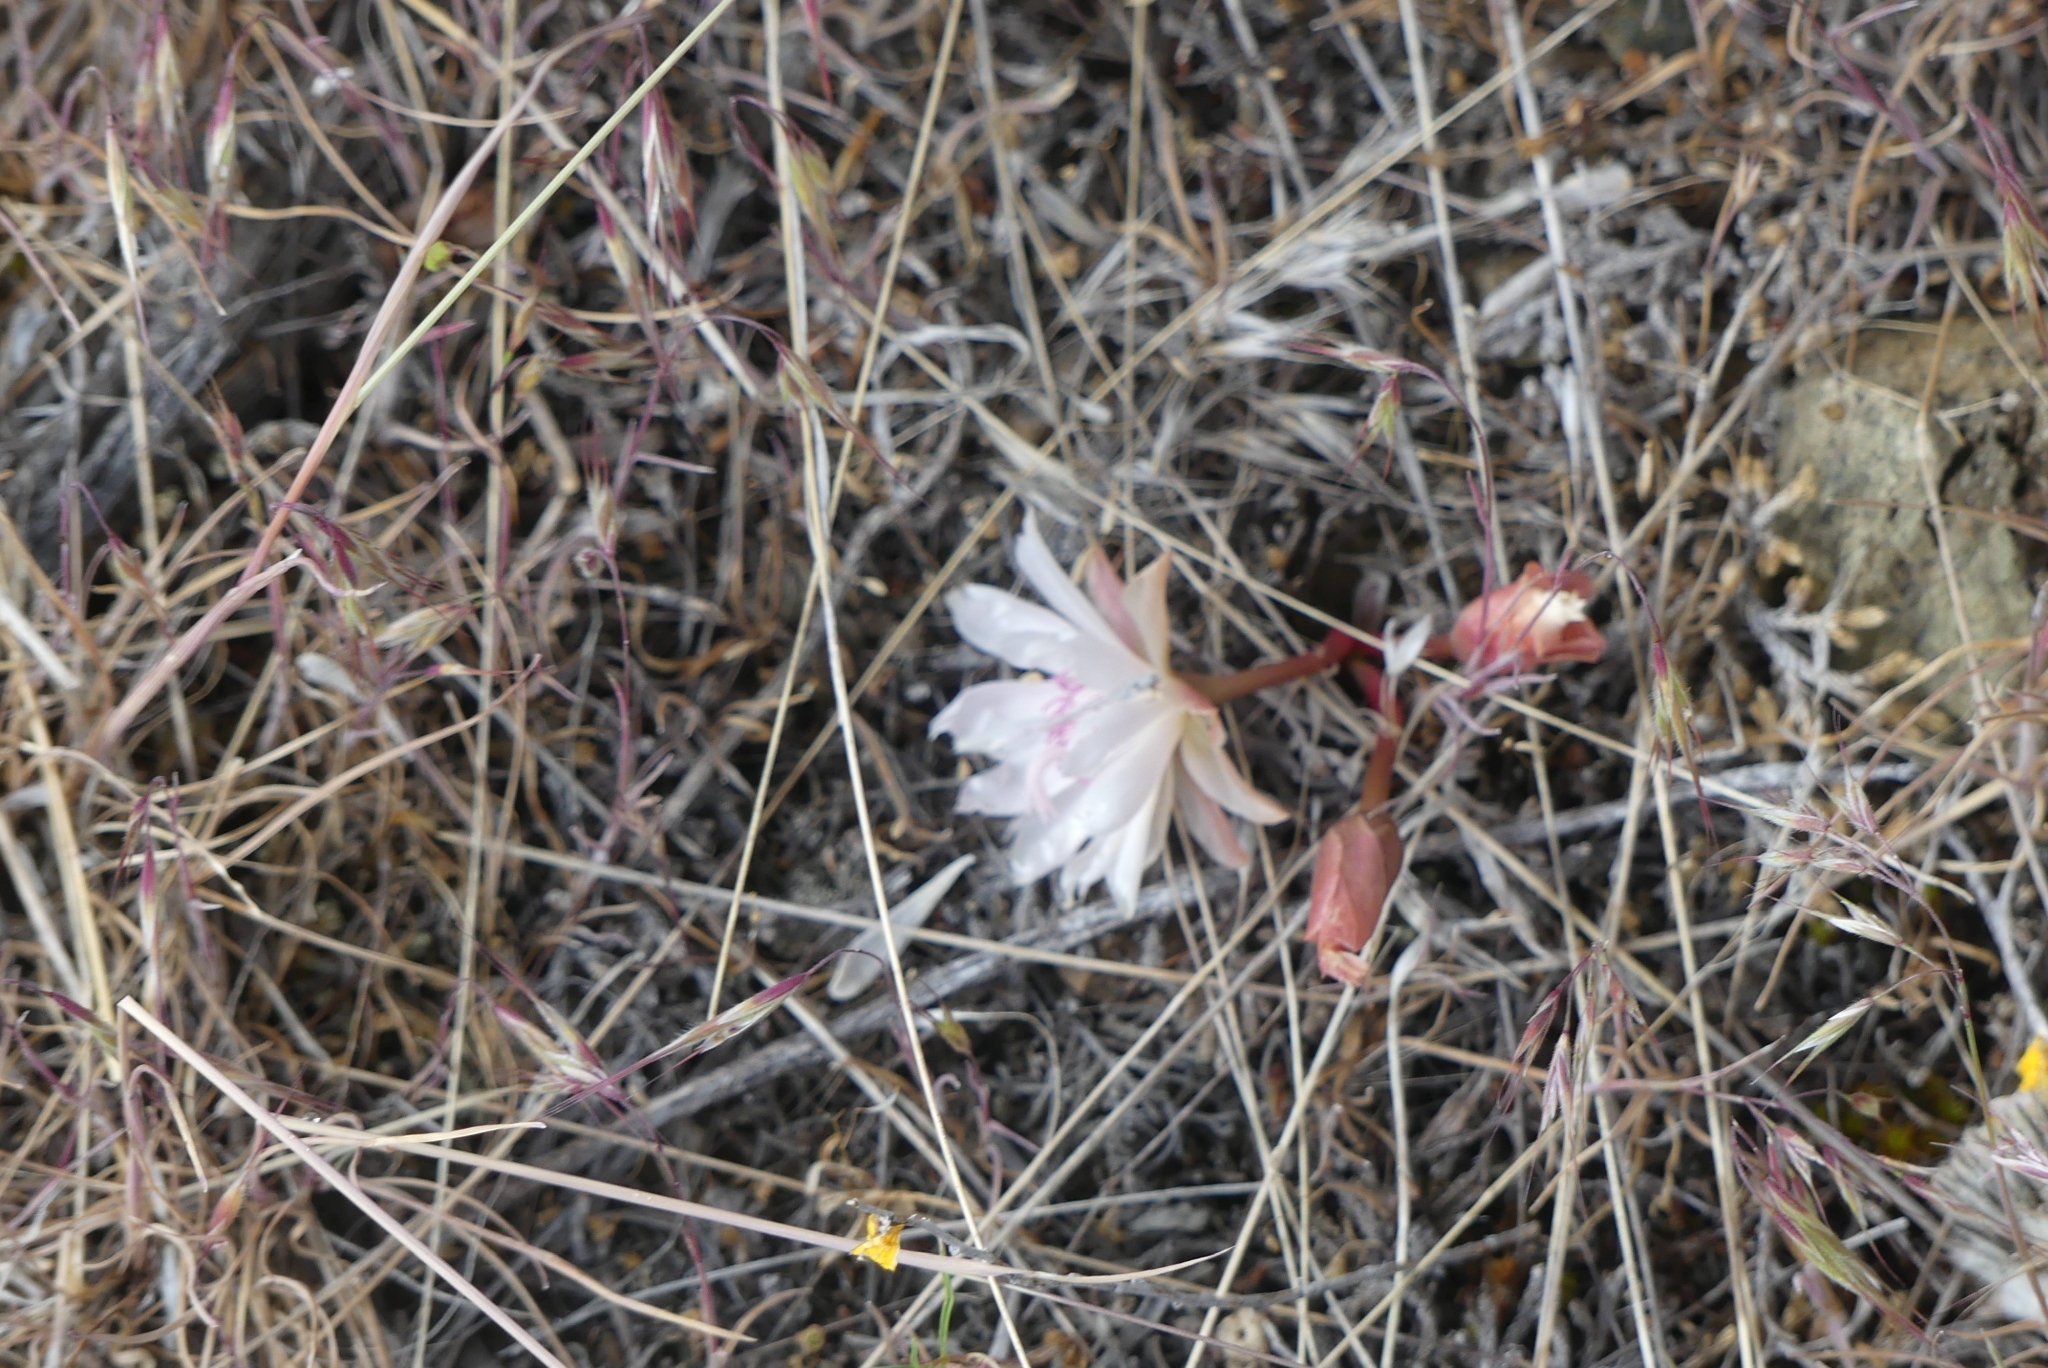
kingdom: Plantae
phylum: Tracheophyta
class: Magnoliopsida
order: Caryophyllales
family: Montiaceae
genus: Lewisia
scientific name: Lewisia rediviva
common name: Bitter-root
